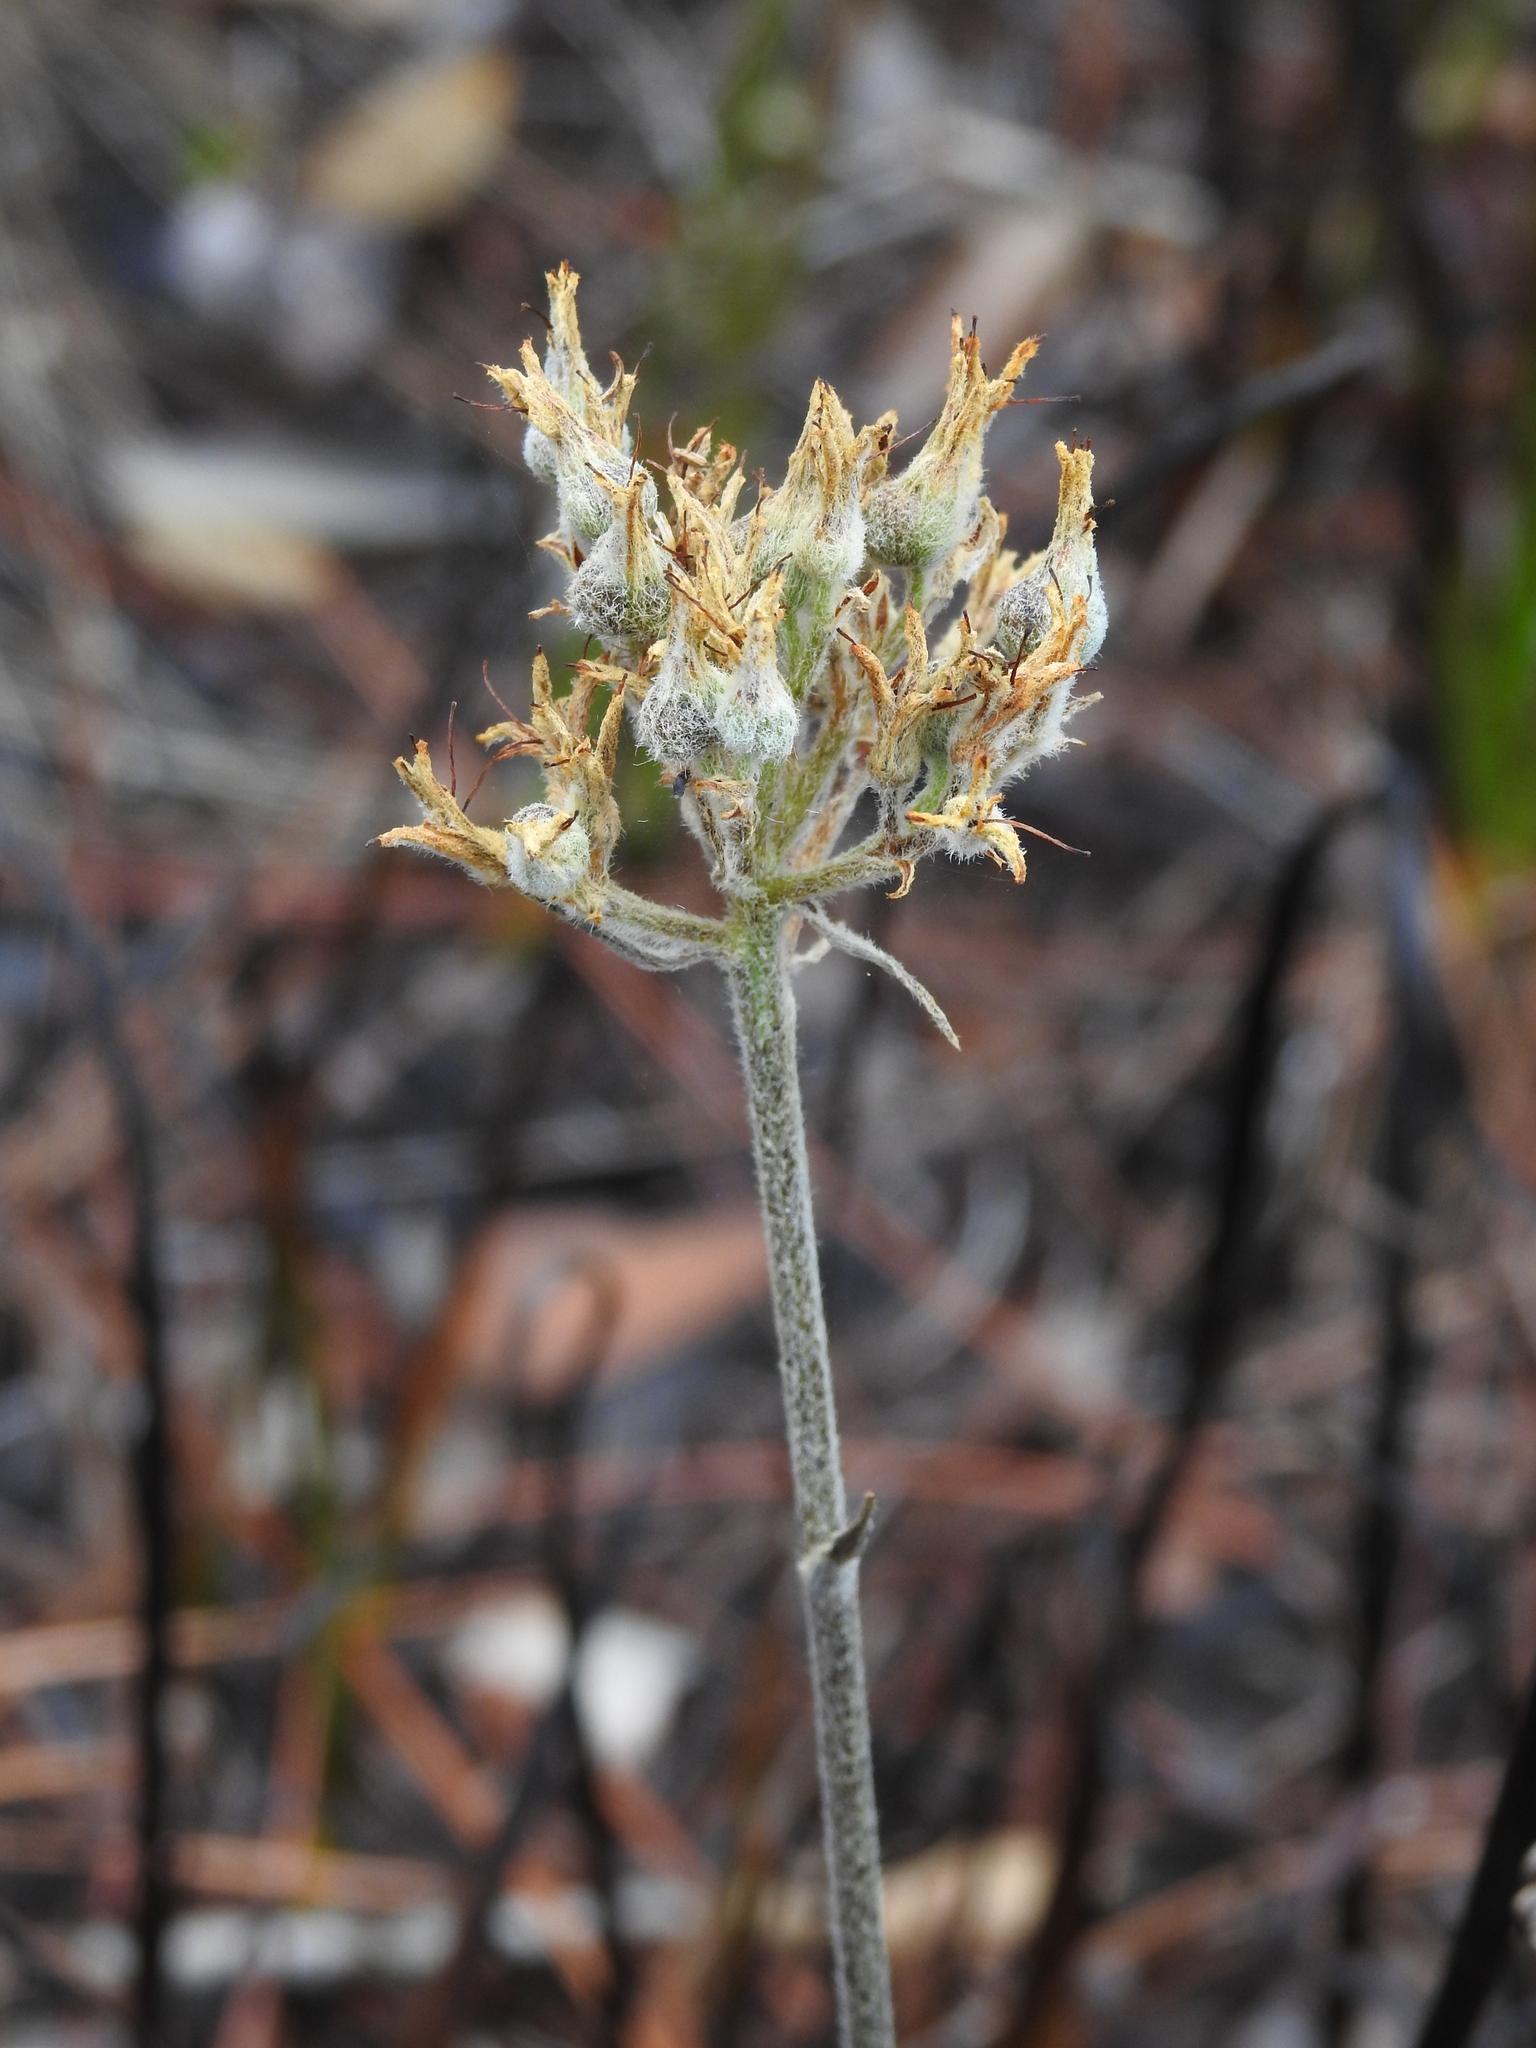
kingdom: Plantae
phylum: Tracheophyta
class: Liliopsida
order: Commelinales
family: Haemodoraceae
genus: Lachnanthes
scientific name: Lachnanthes caroliana
